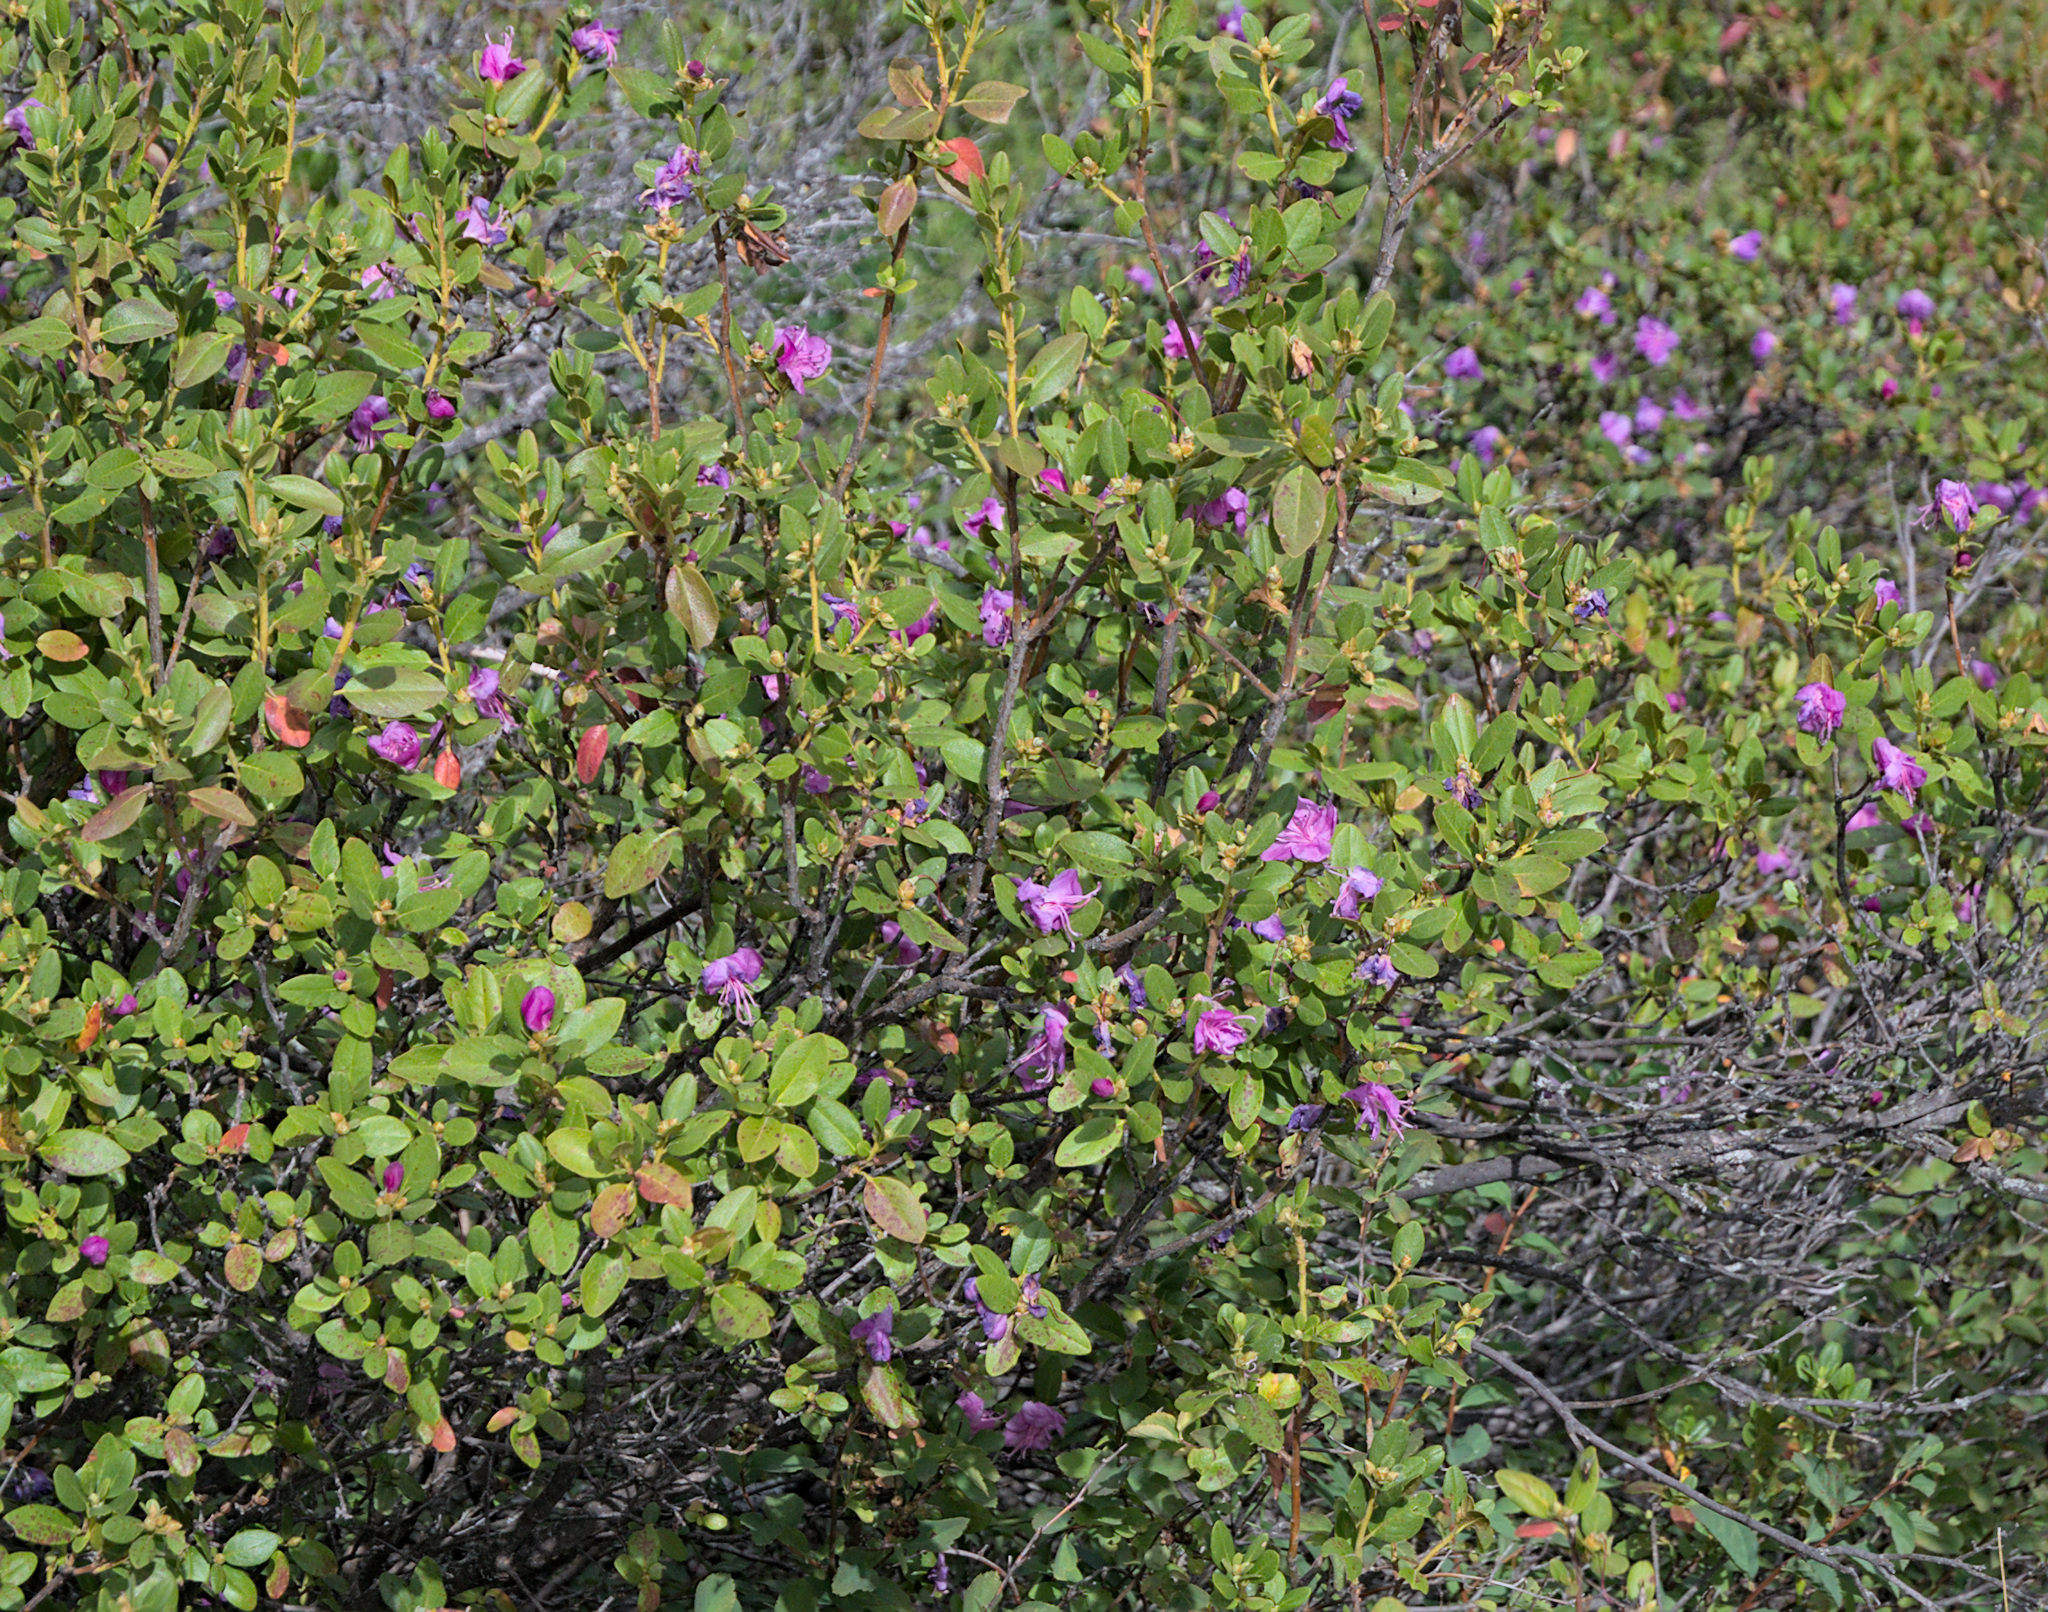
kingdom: Plantae
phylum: Tracheophyta
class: Magnoliopsida
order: Ericales
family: Ericaceae
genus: Rhododendron
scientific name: Rhododendron dauricum
